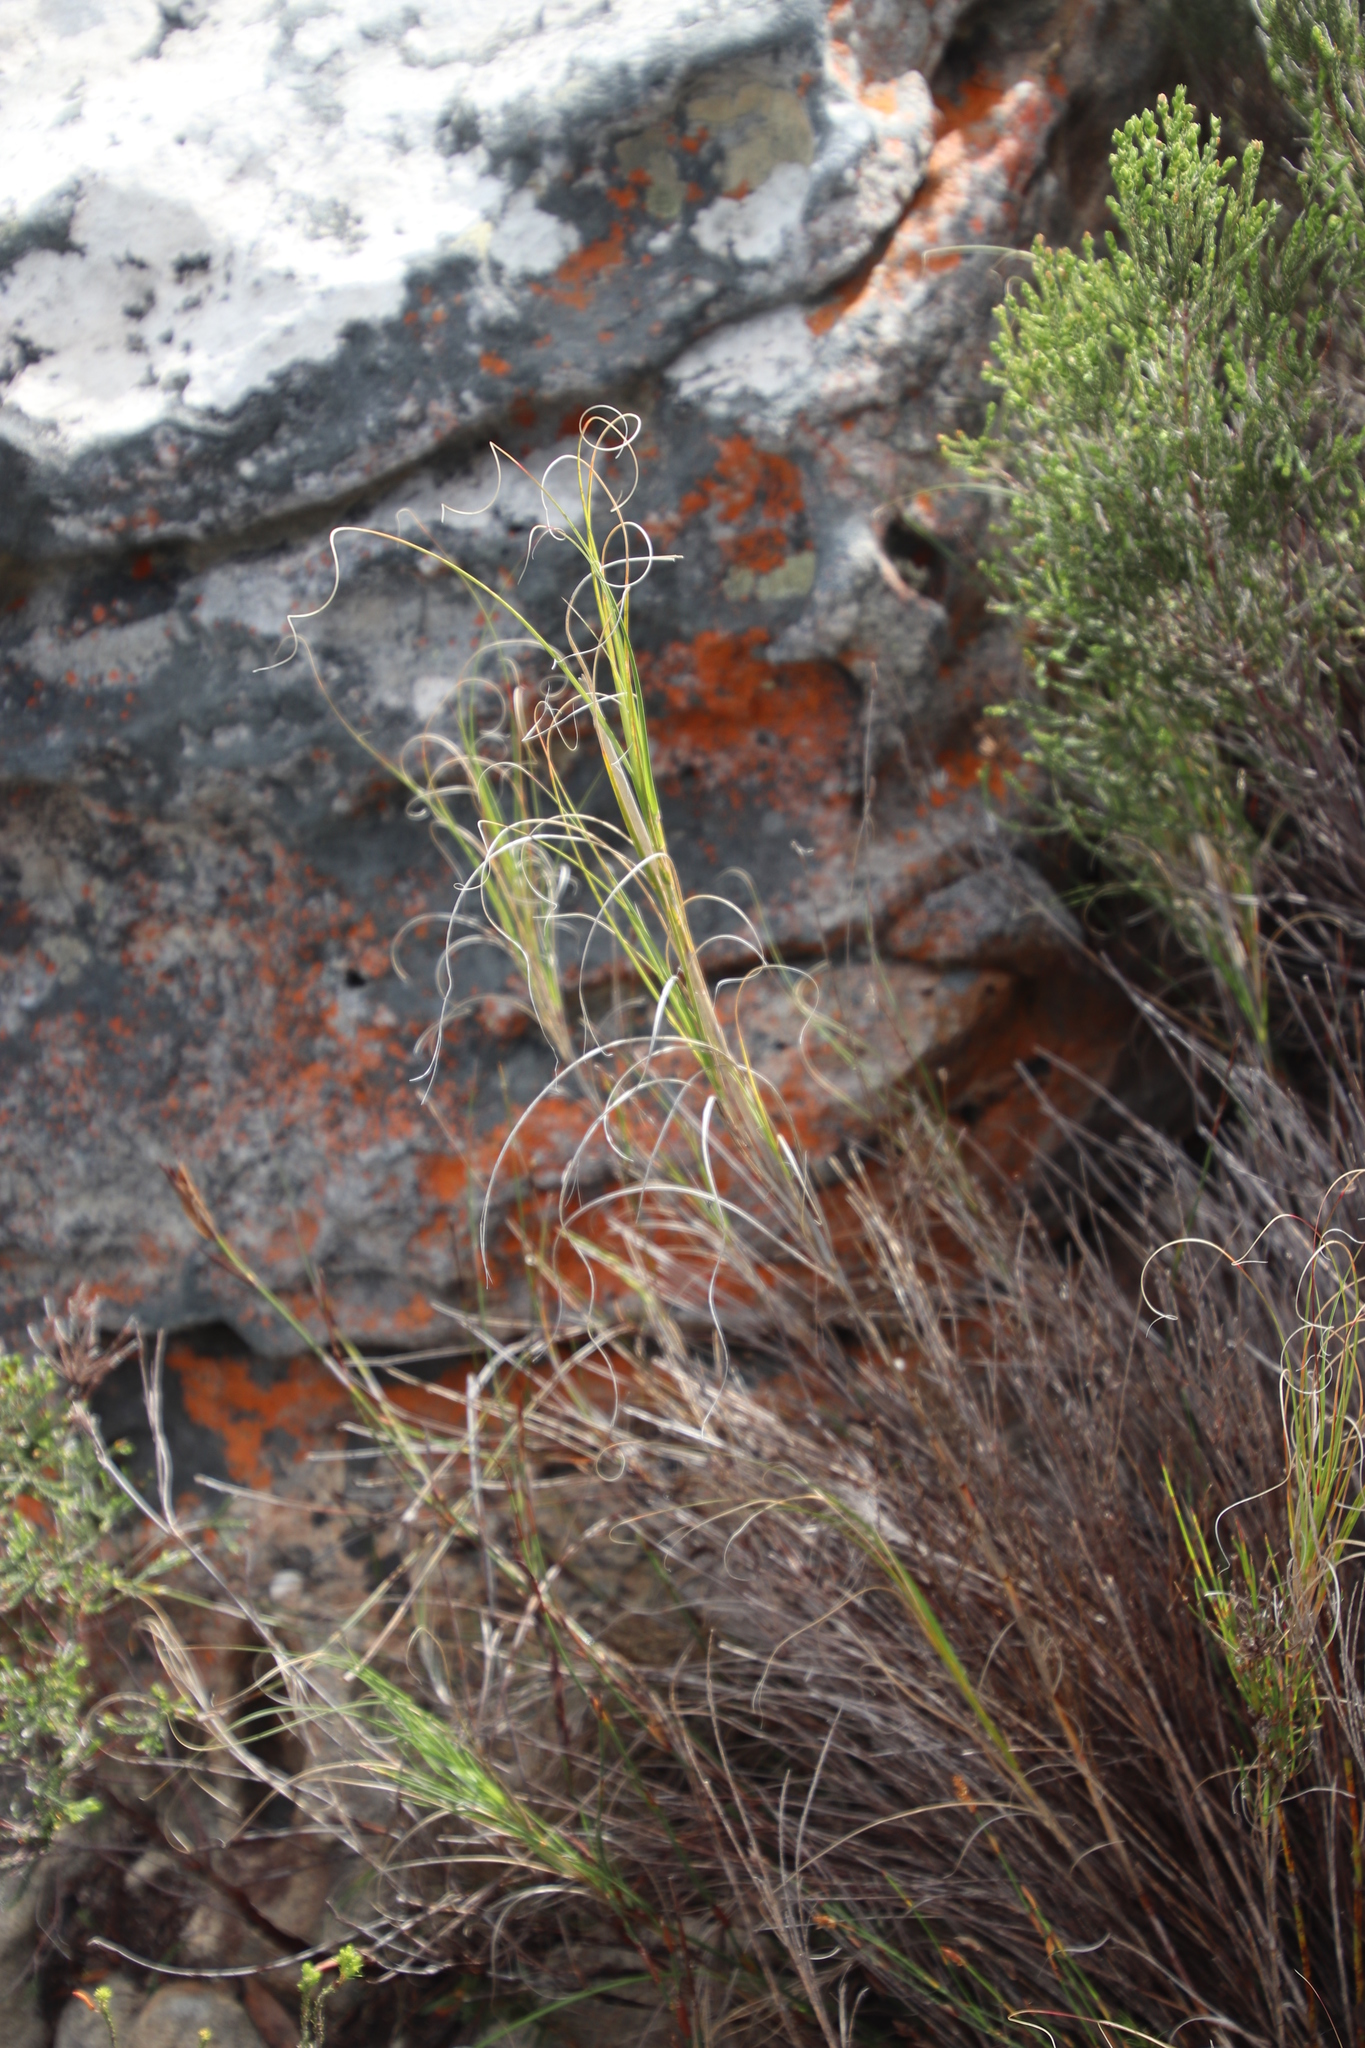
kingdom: Plantae
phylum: Tracheophyta
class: Liliopsida
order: Poales
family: Poaceae
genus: Pseudopentameris
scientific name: Pseudopentameris macrantha
